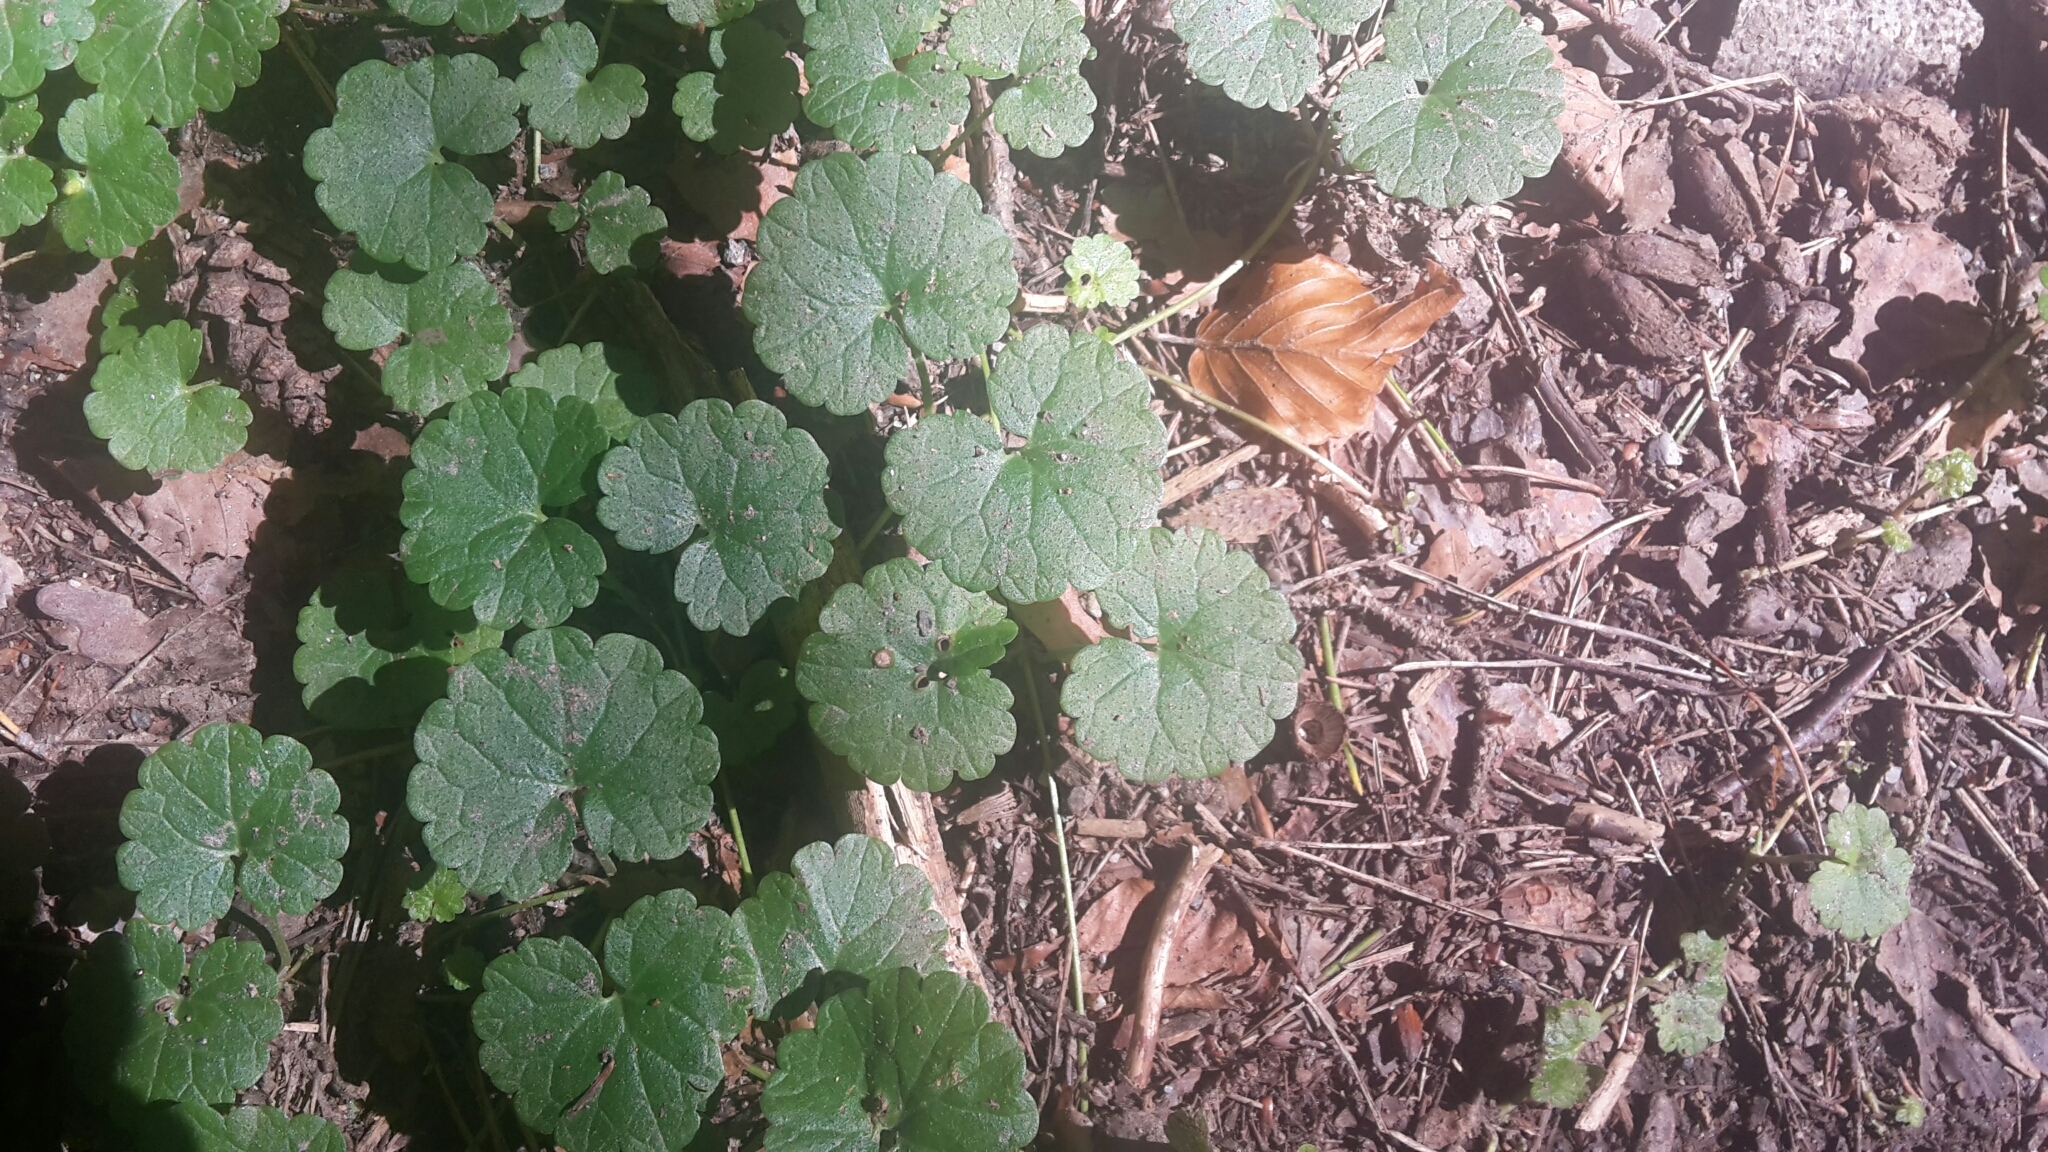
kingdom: Plantae
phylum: Tracheophyta
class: Magnoliopsida
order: Lamiales
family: Lamiaceae
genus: Glechoma
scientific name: Glechoma hederacea
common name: Ground ivy
